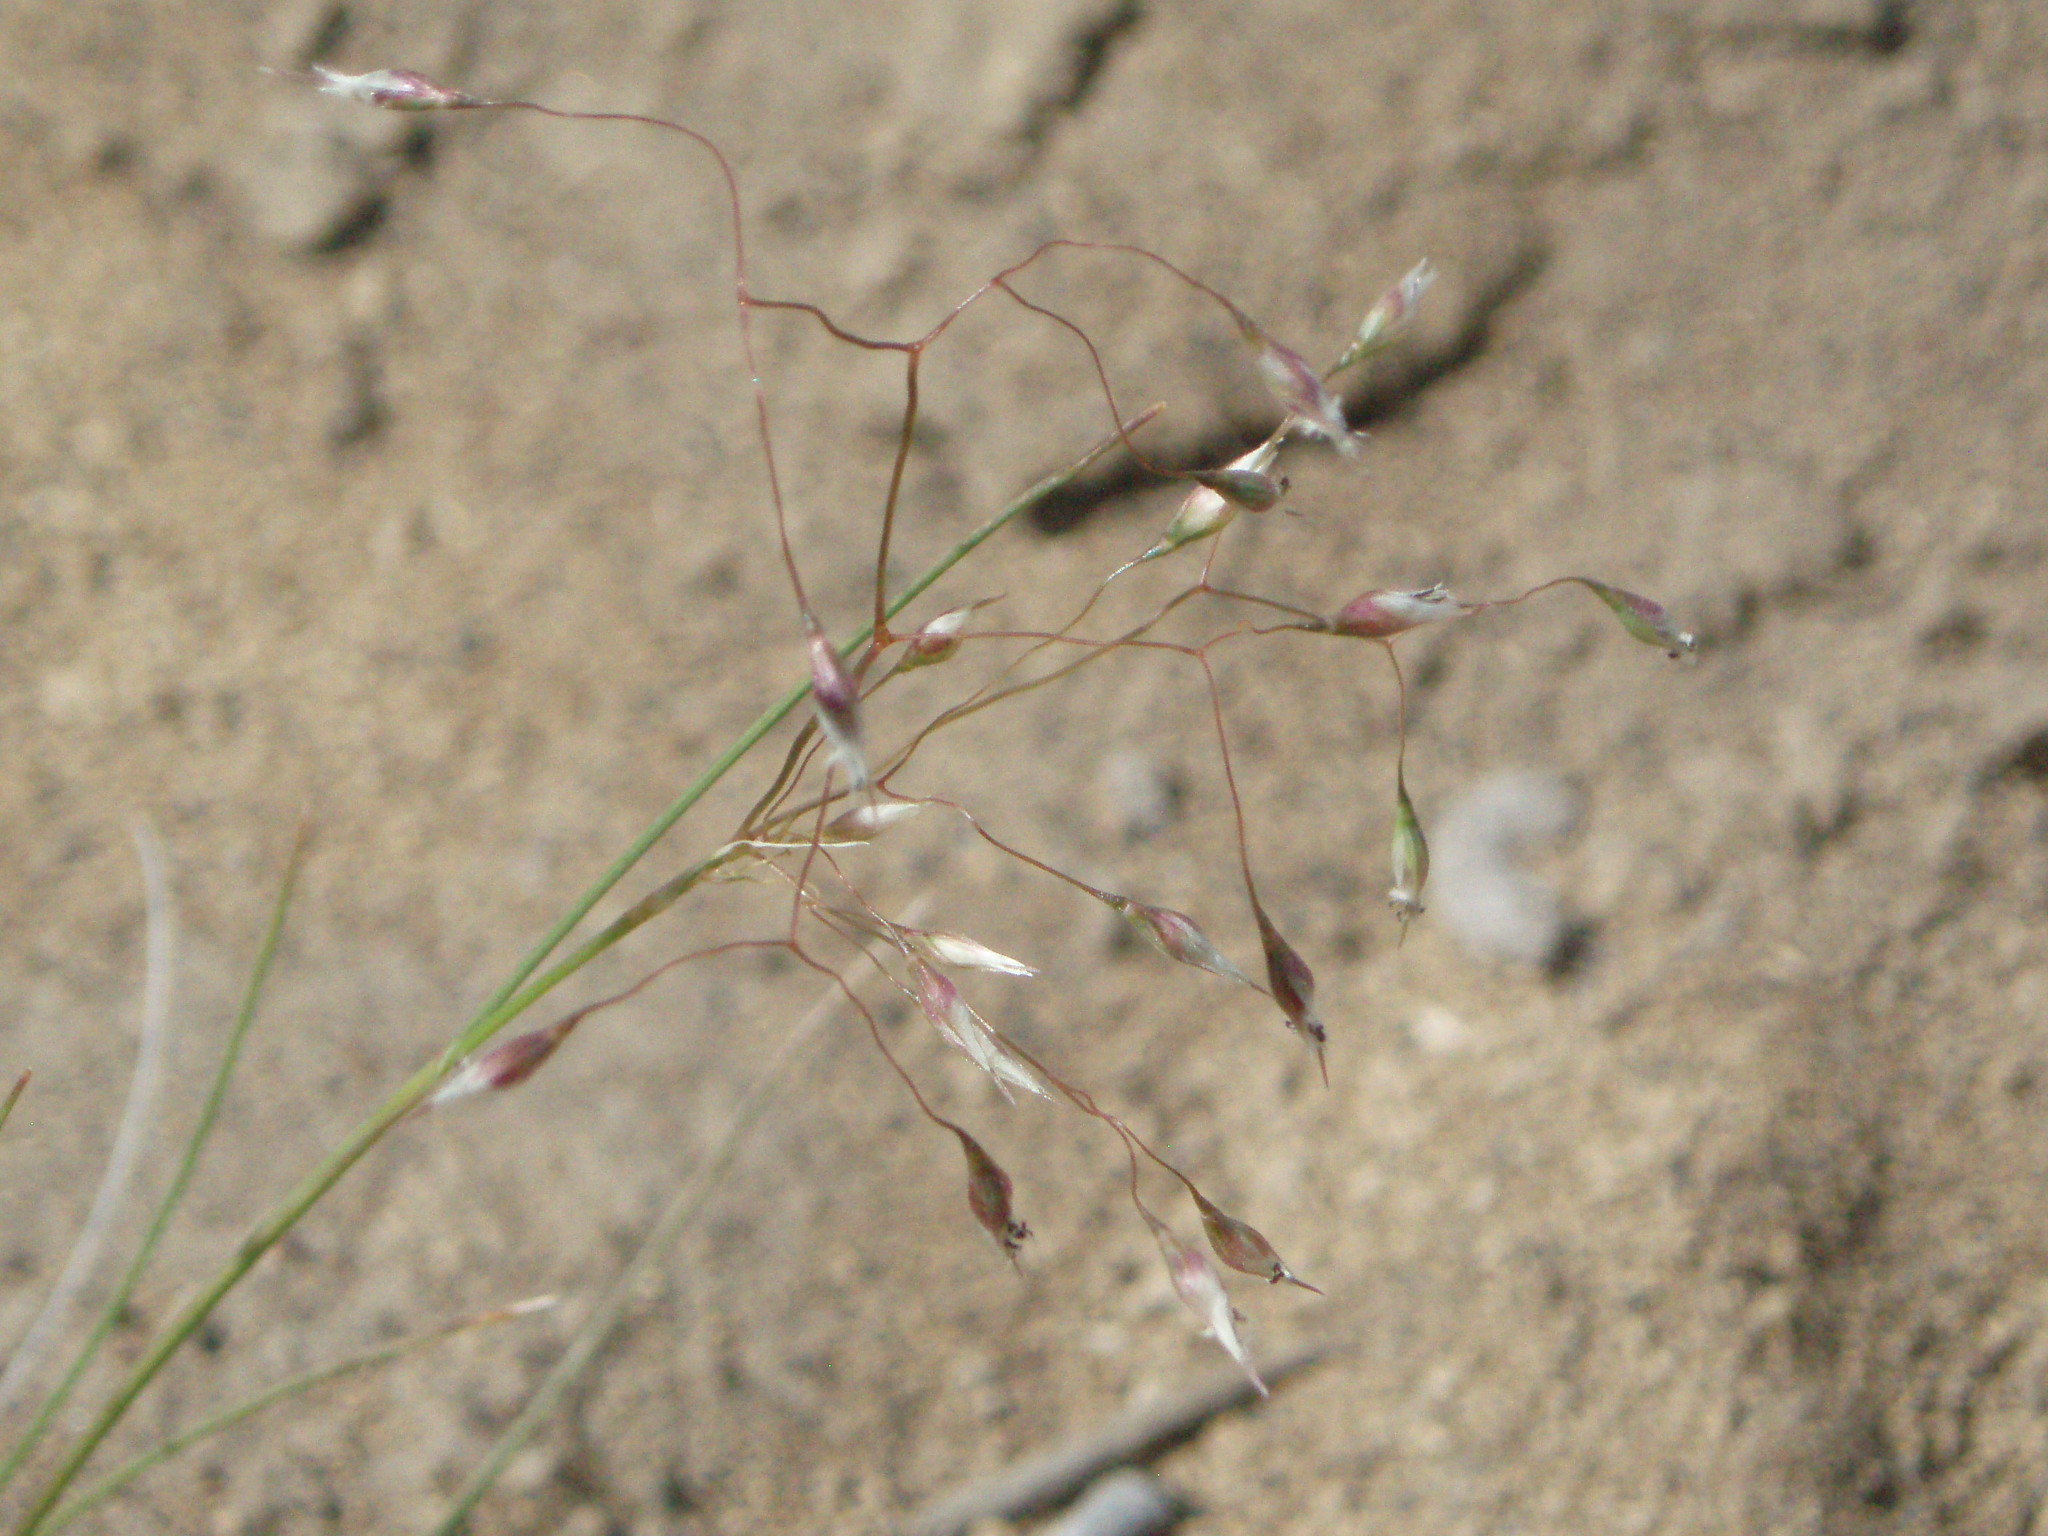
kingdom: Plantae
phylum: Tracheophyta
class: Liliopsida
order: Poales
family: Poaceae
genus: Eriocoma
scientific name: Eriocoma hymenoides
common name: Indian mountain ricegrass
